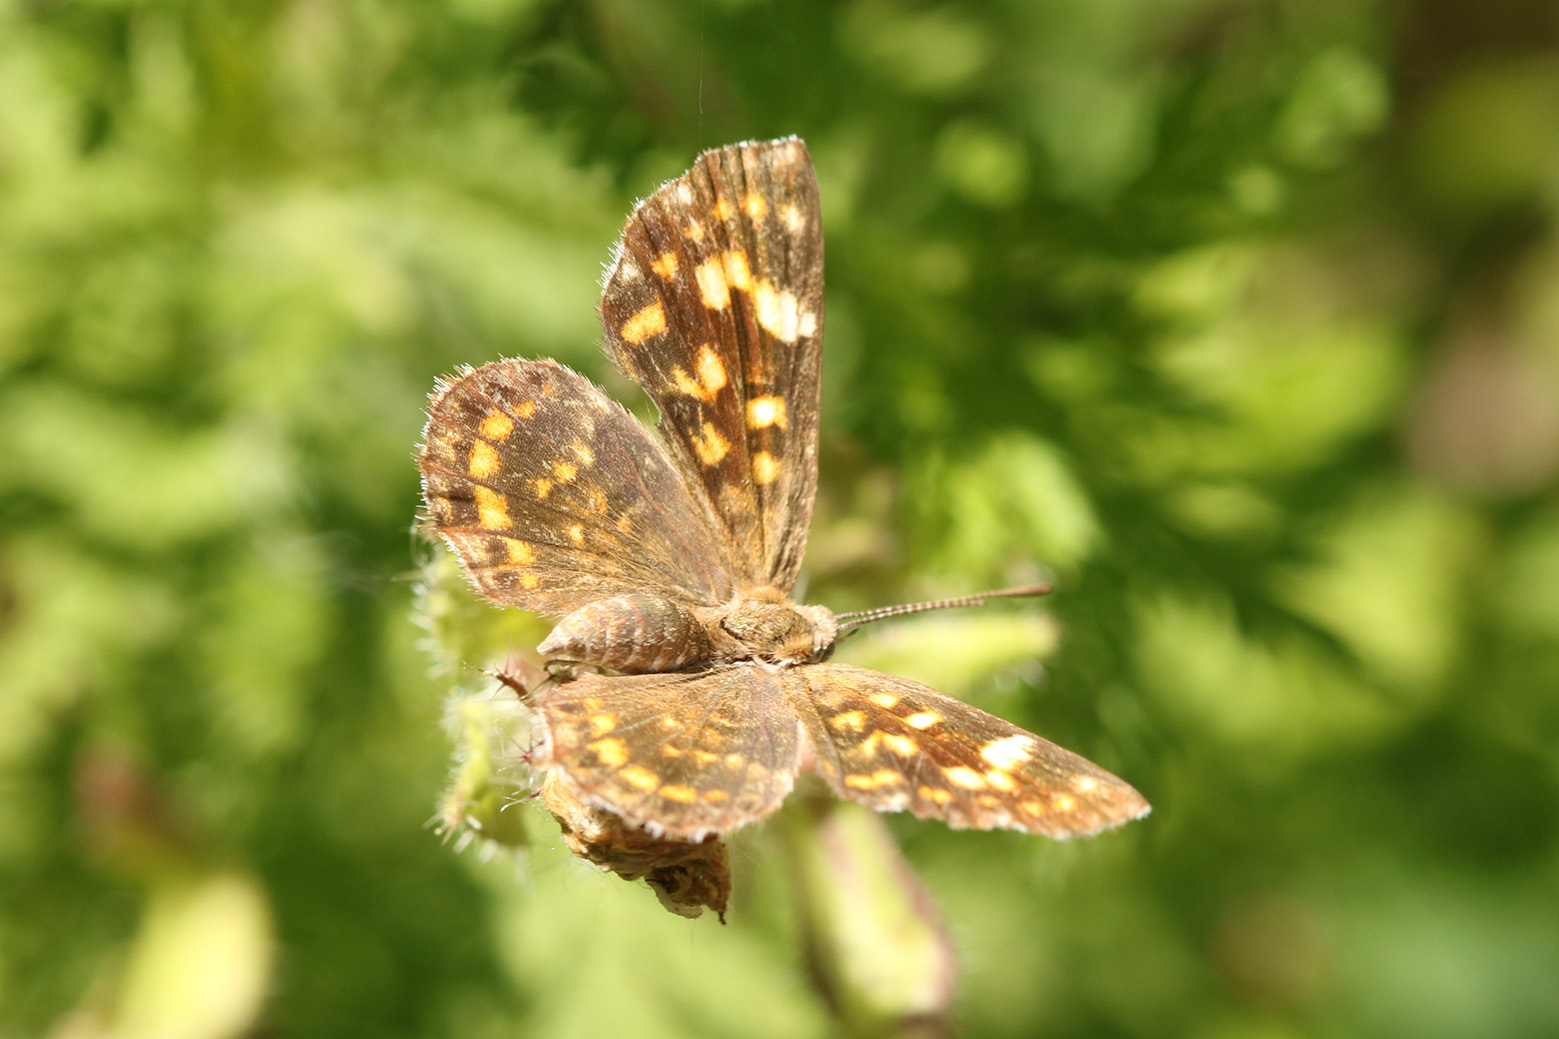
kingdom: Animalia
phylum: Arthropoda
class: Insecta
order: Lepidoptera
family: Lycaenidae
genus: Aricoris
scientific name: Aricoris signata
